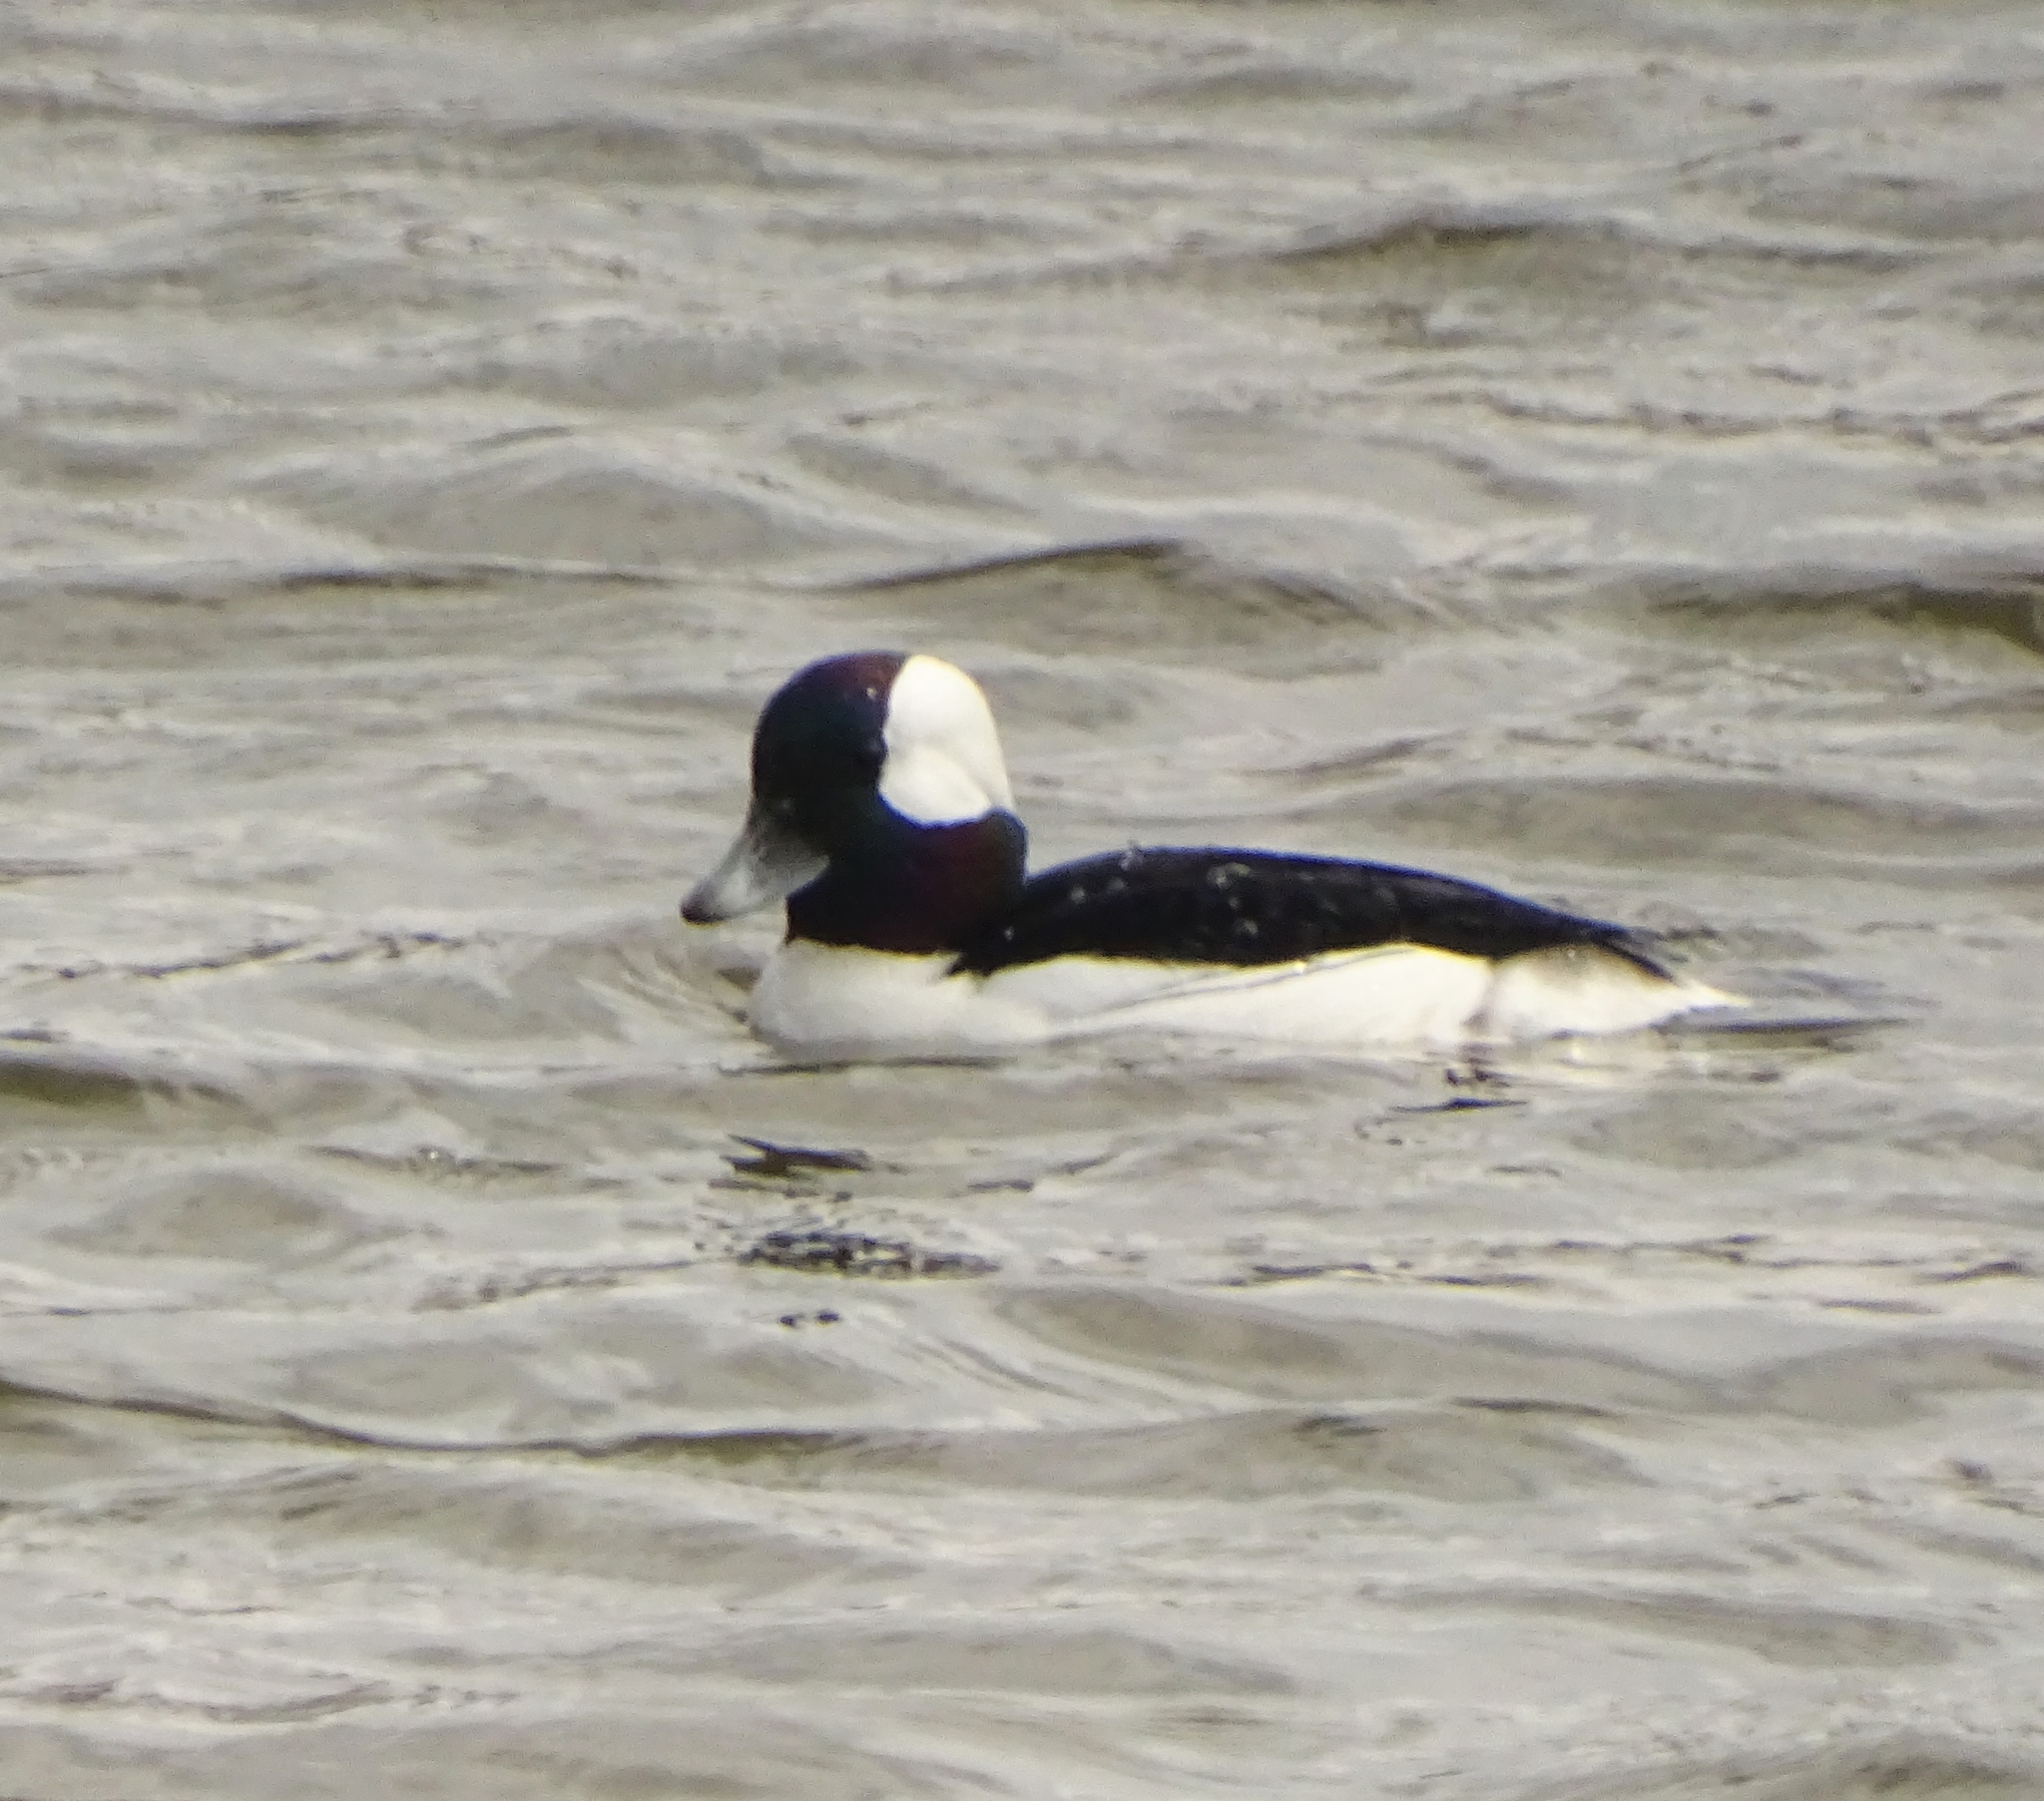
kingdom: Animalia
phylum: Chordata
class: Aves
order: Anseriformes
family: Anatidae
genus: Bucephala
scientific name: Bucephala albeola
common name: Bufflehead
